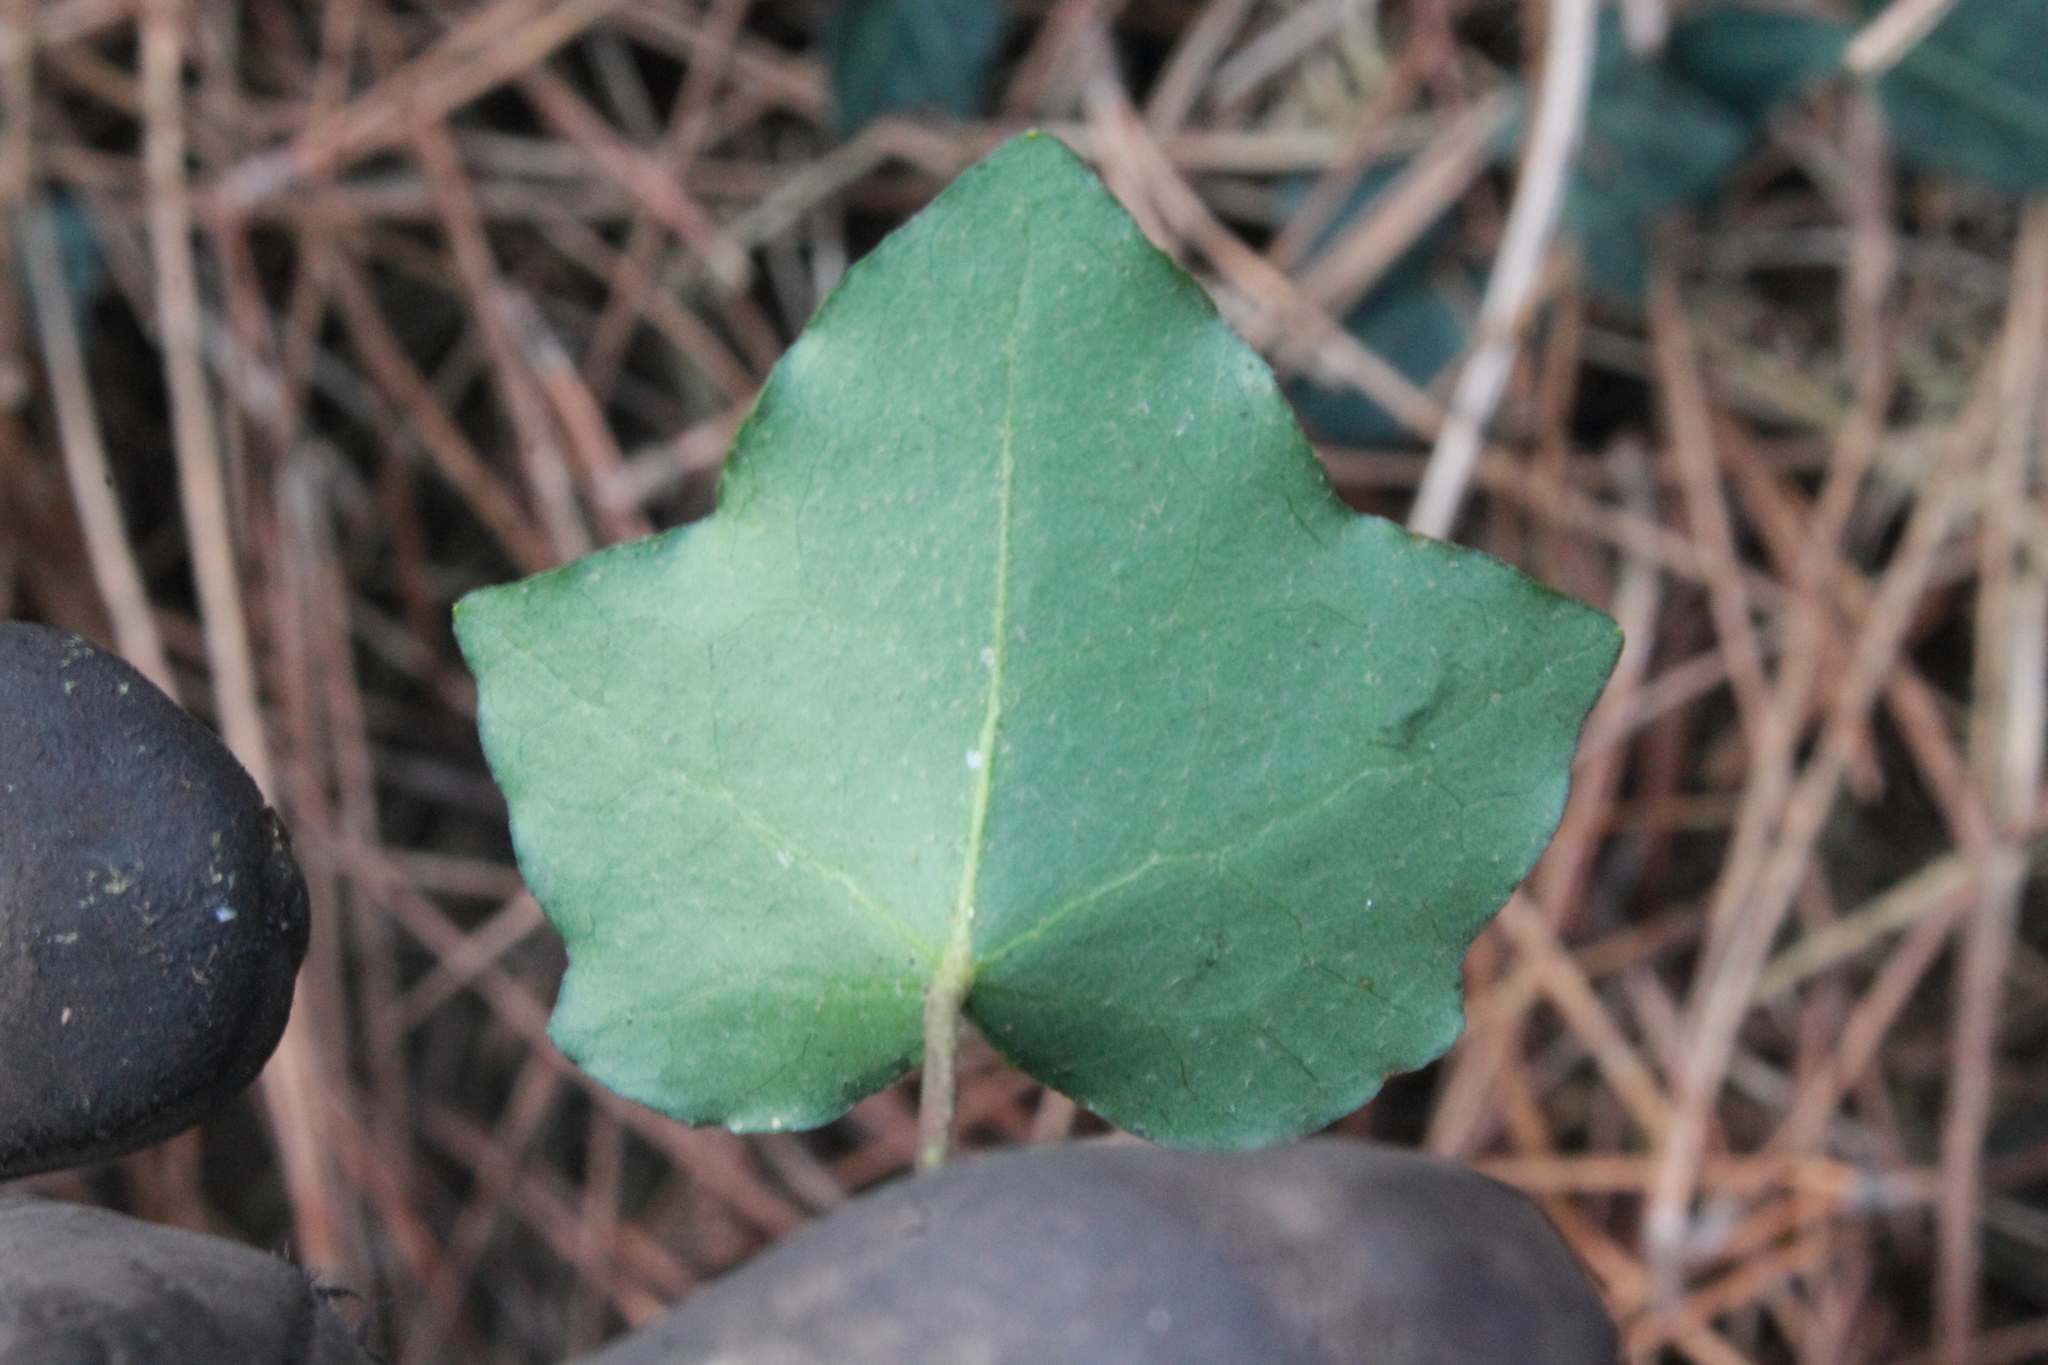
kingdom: Plantae
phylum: Tracheophyta
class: Magnoliopsida
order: Apiales
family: Araliaceae
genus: Hedera
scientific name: Hedera helix
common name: Ivy
